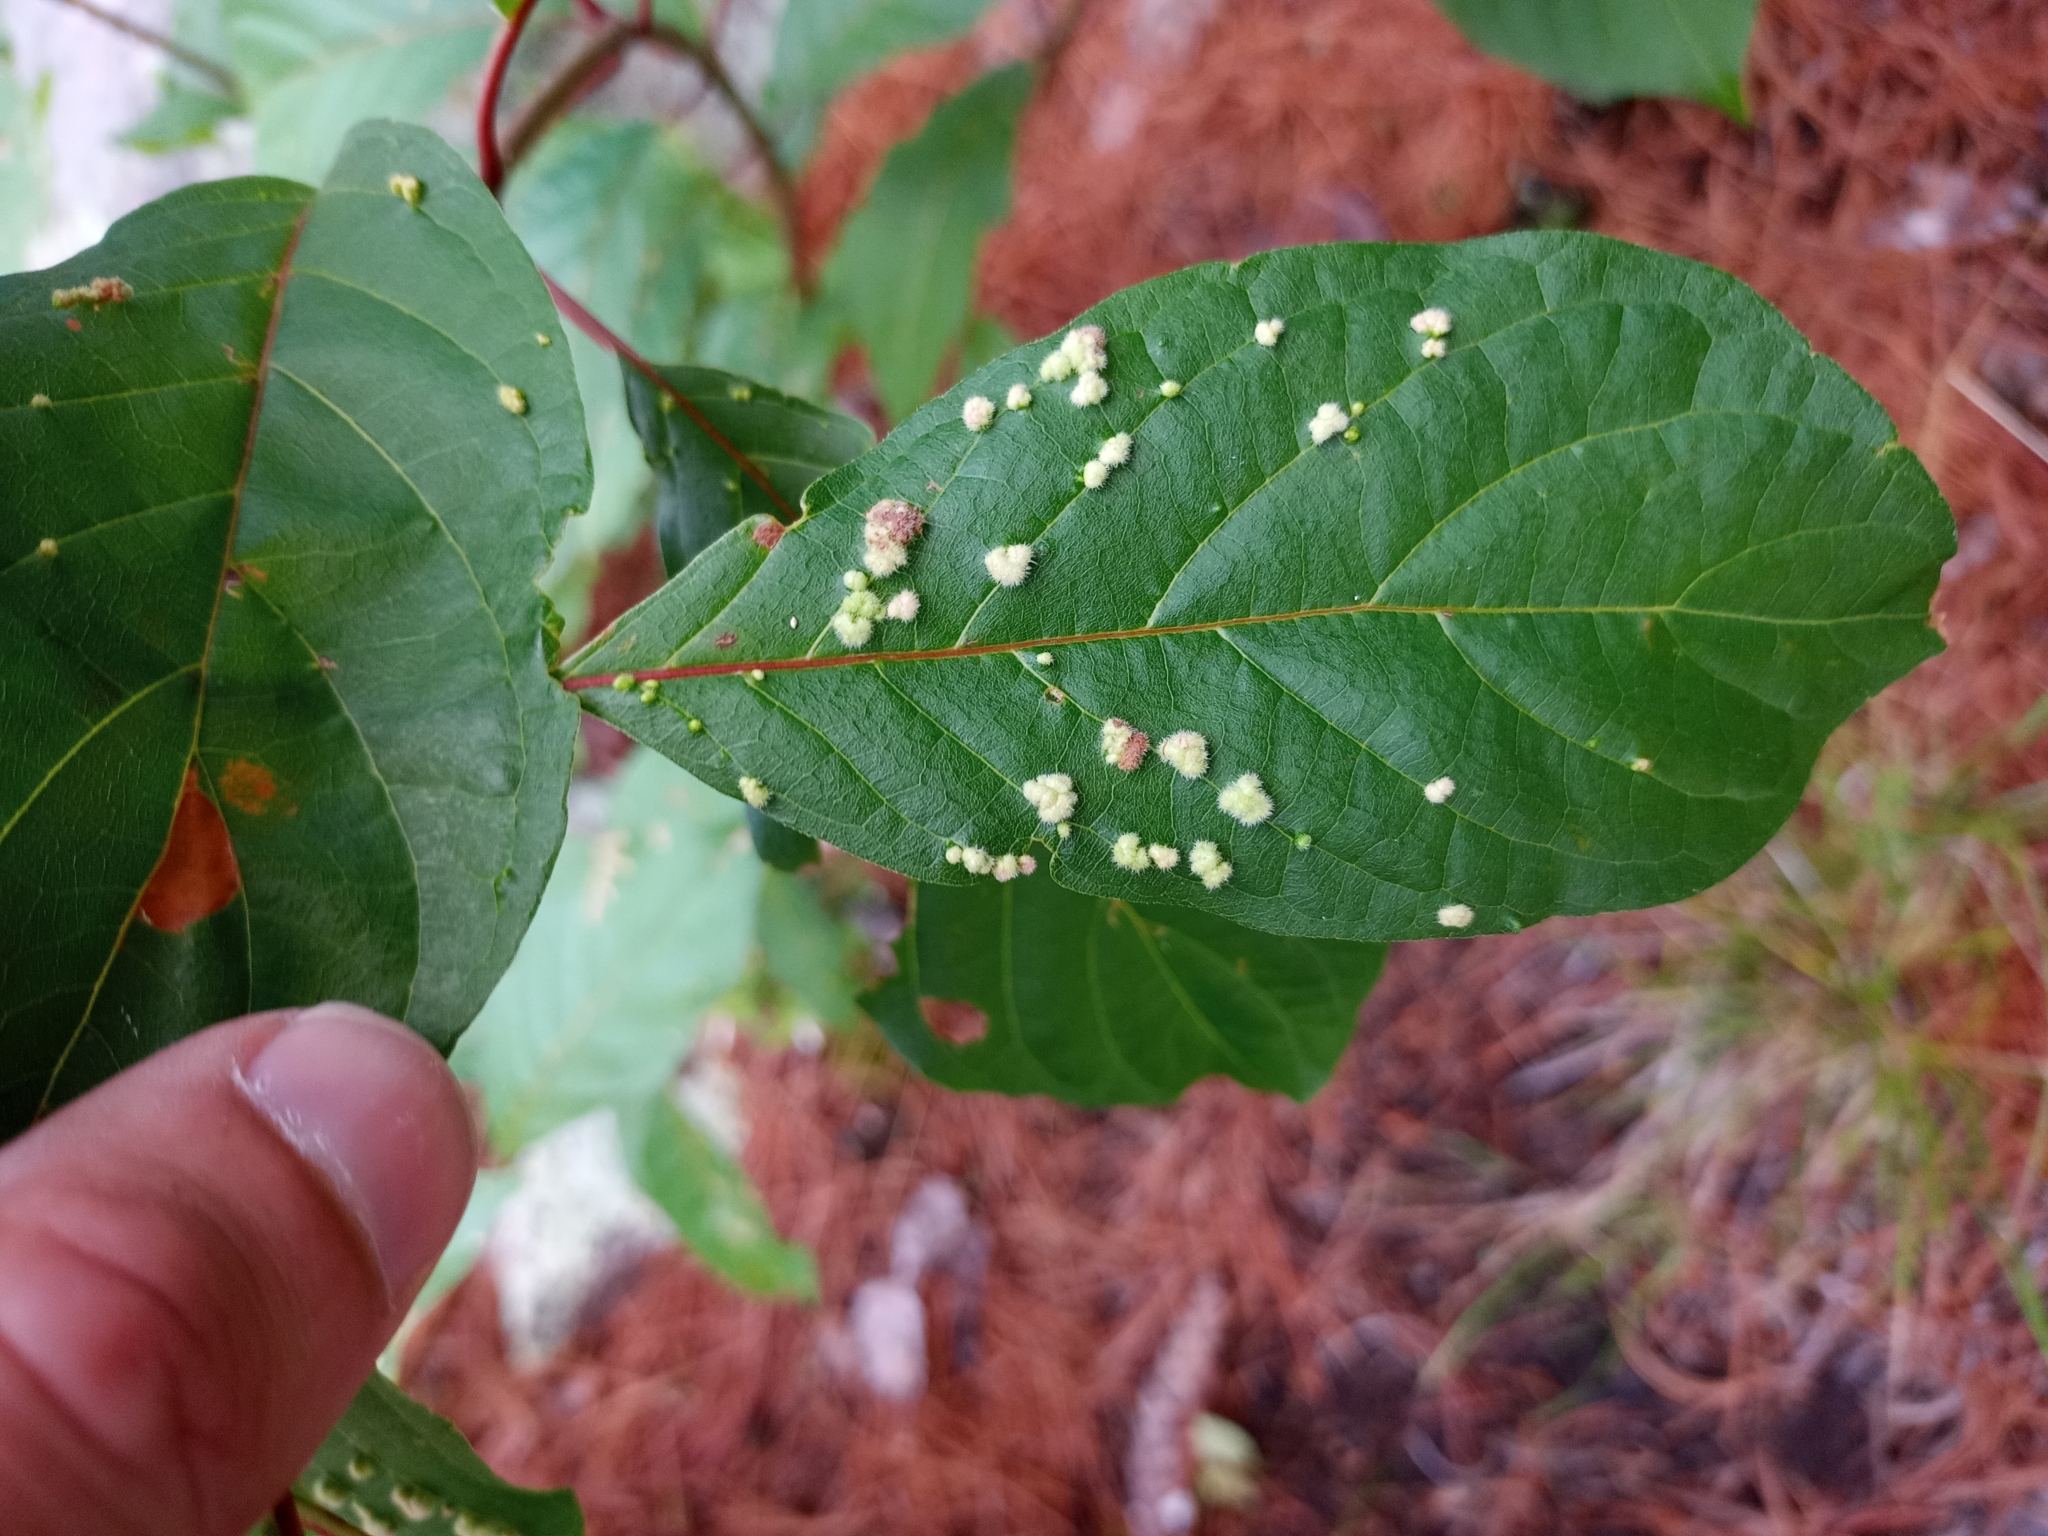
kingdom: Animalia
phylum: Arthropoda
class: Arachnida
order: Trombidiformes
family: Eriophyidae
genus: Aceria
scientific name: Aceria
